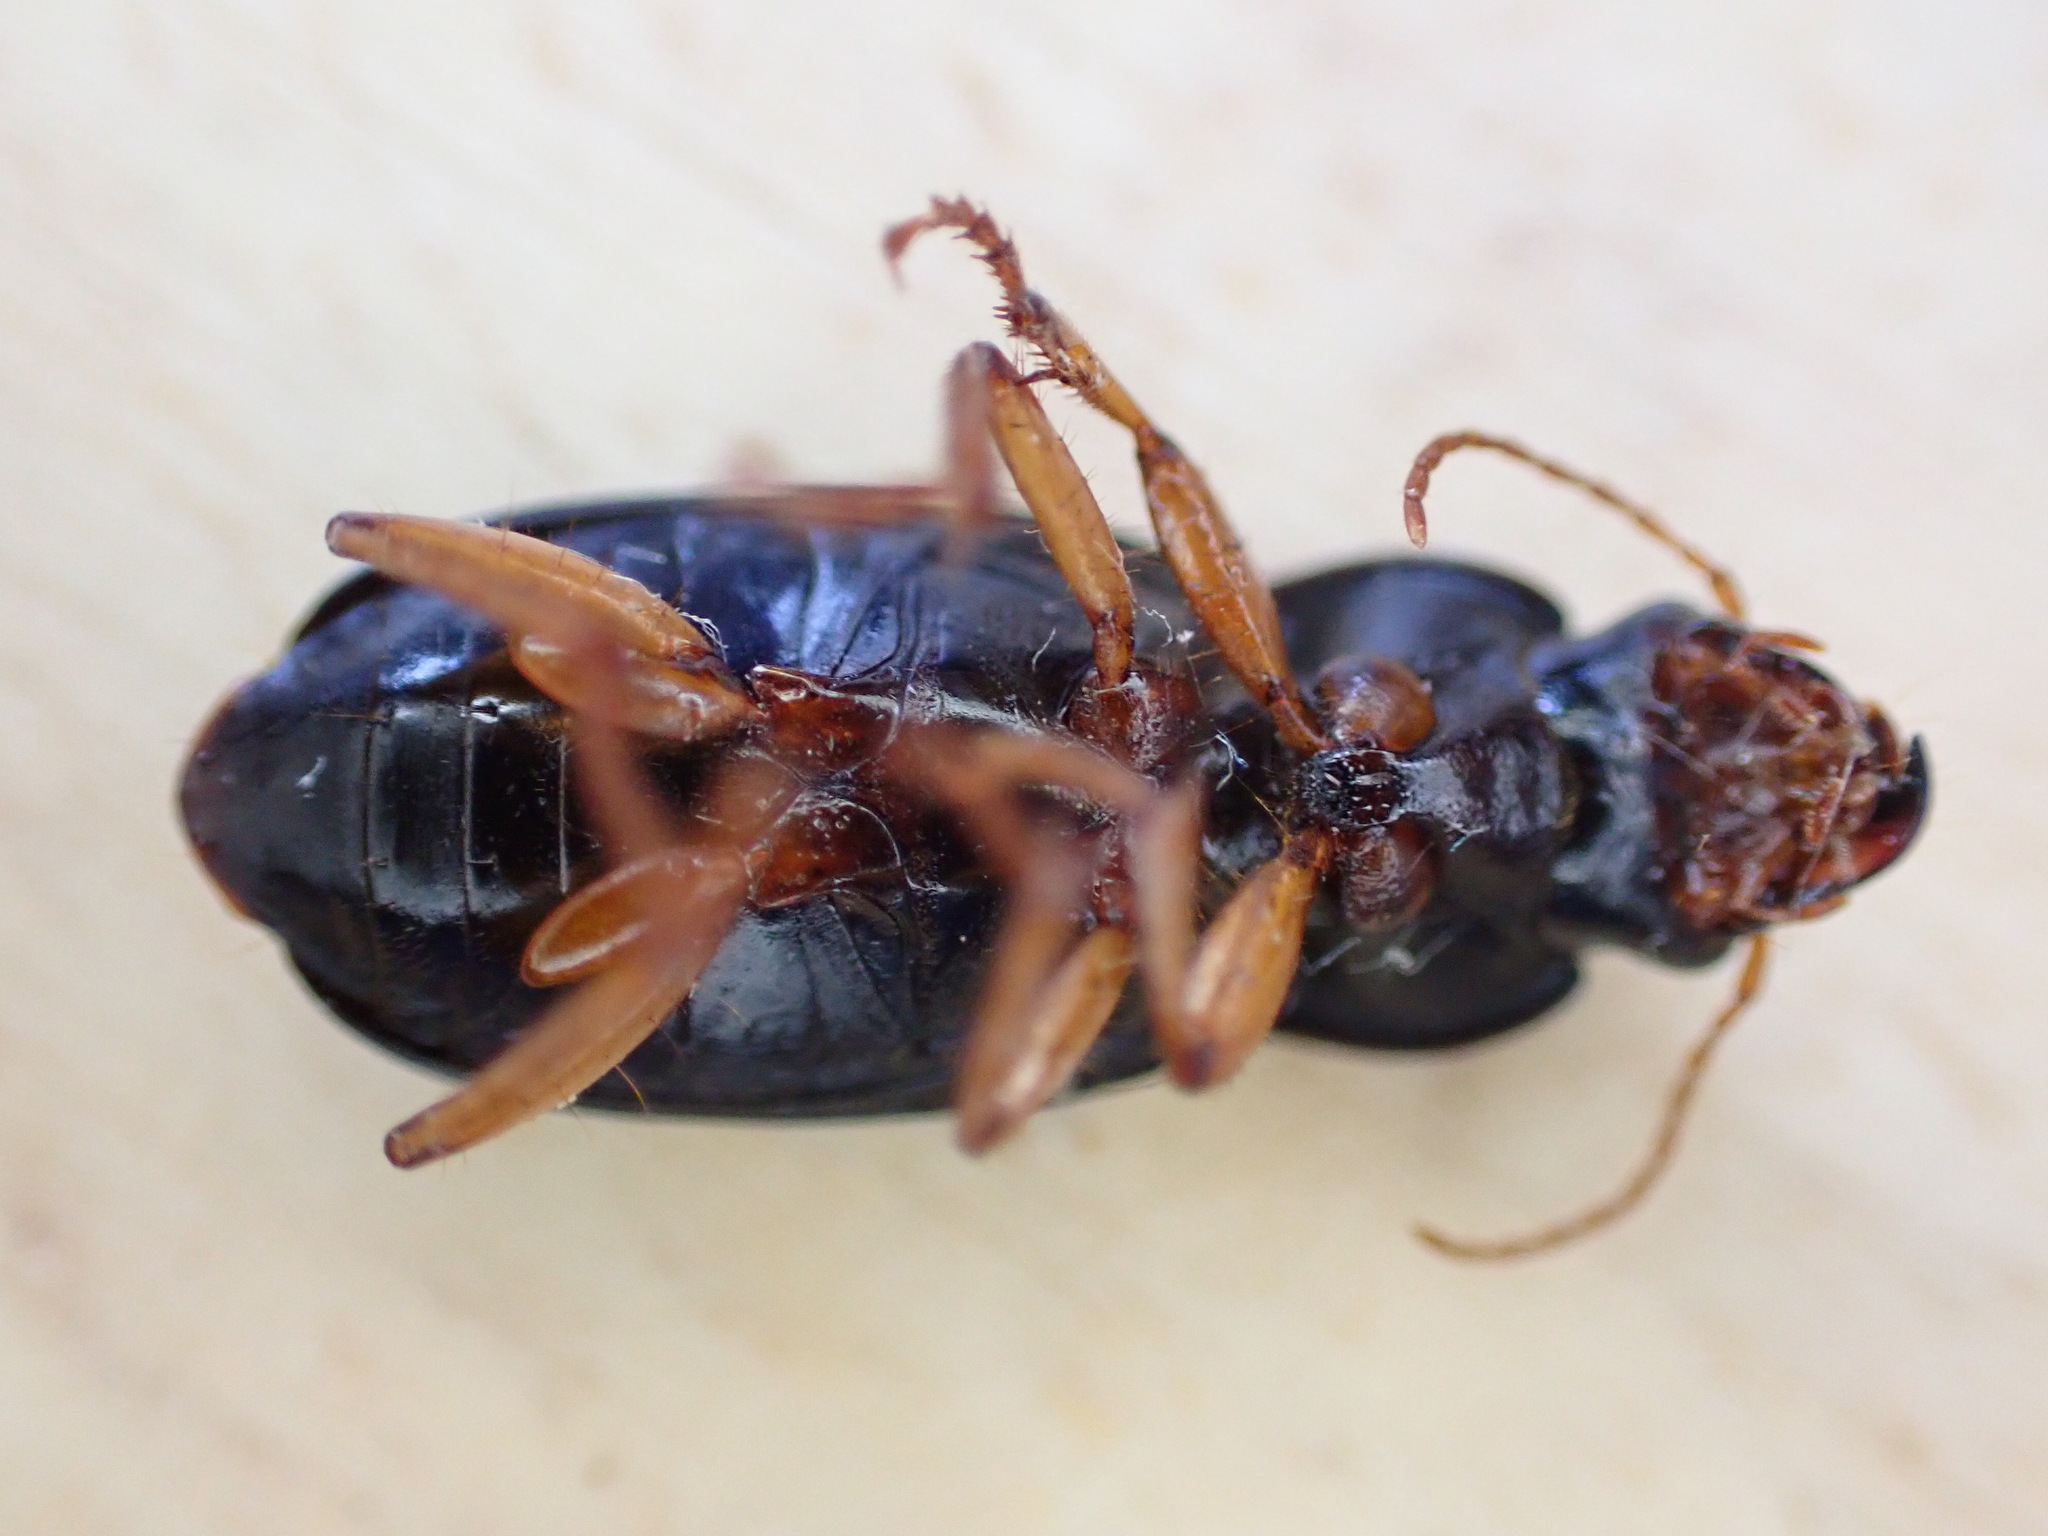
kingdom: Animalia
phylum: Arthropoda
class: Insecta
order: Coleoptera
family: Carabidae
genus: Harpalus
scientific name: Harpalus rufipes
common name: Strawberry harp ground beetle
